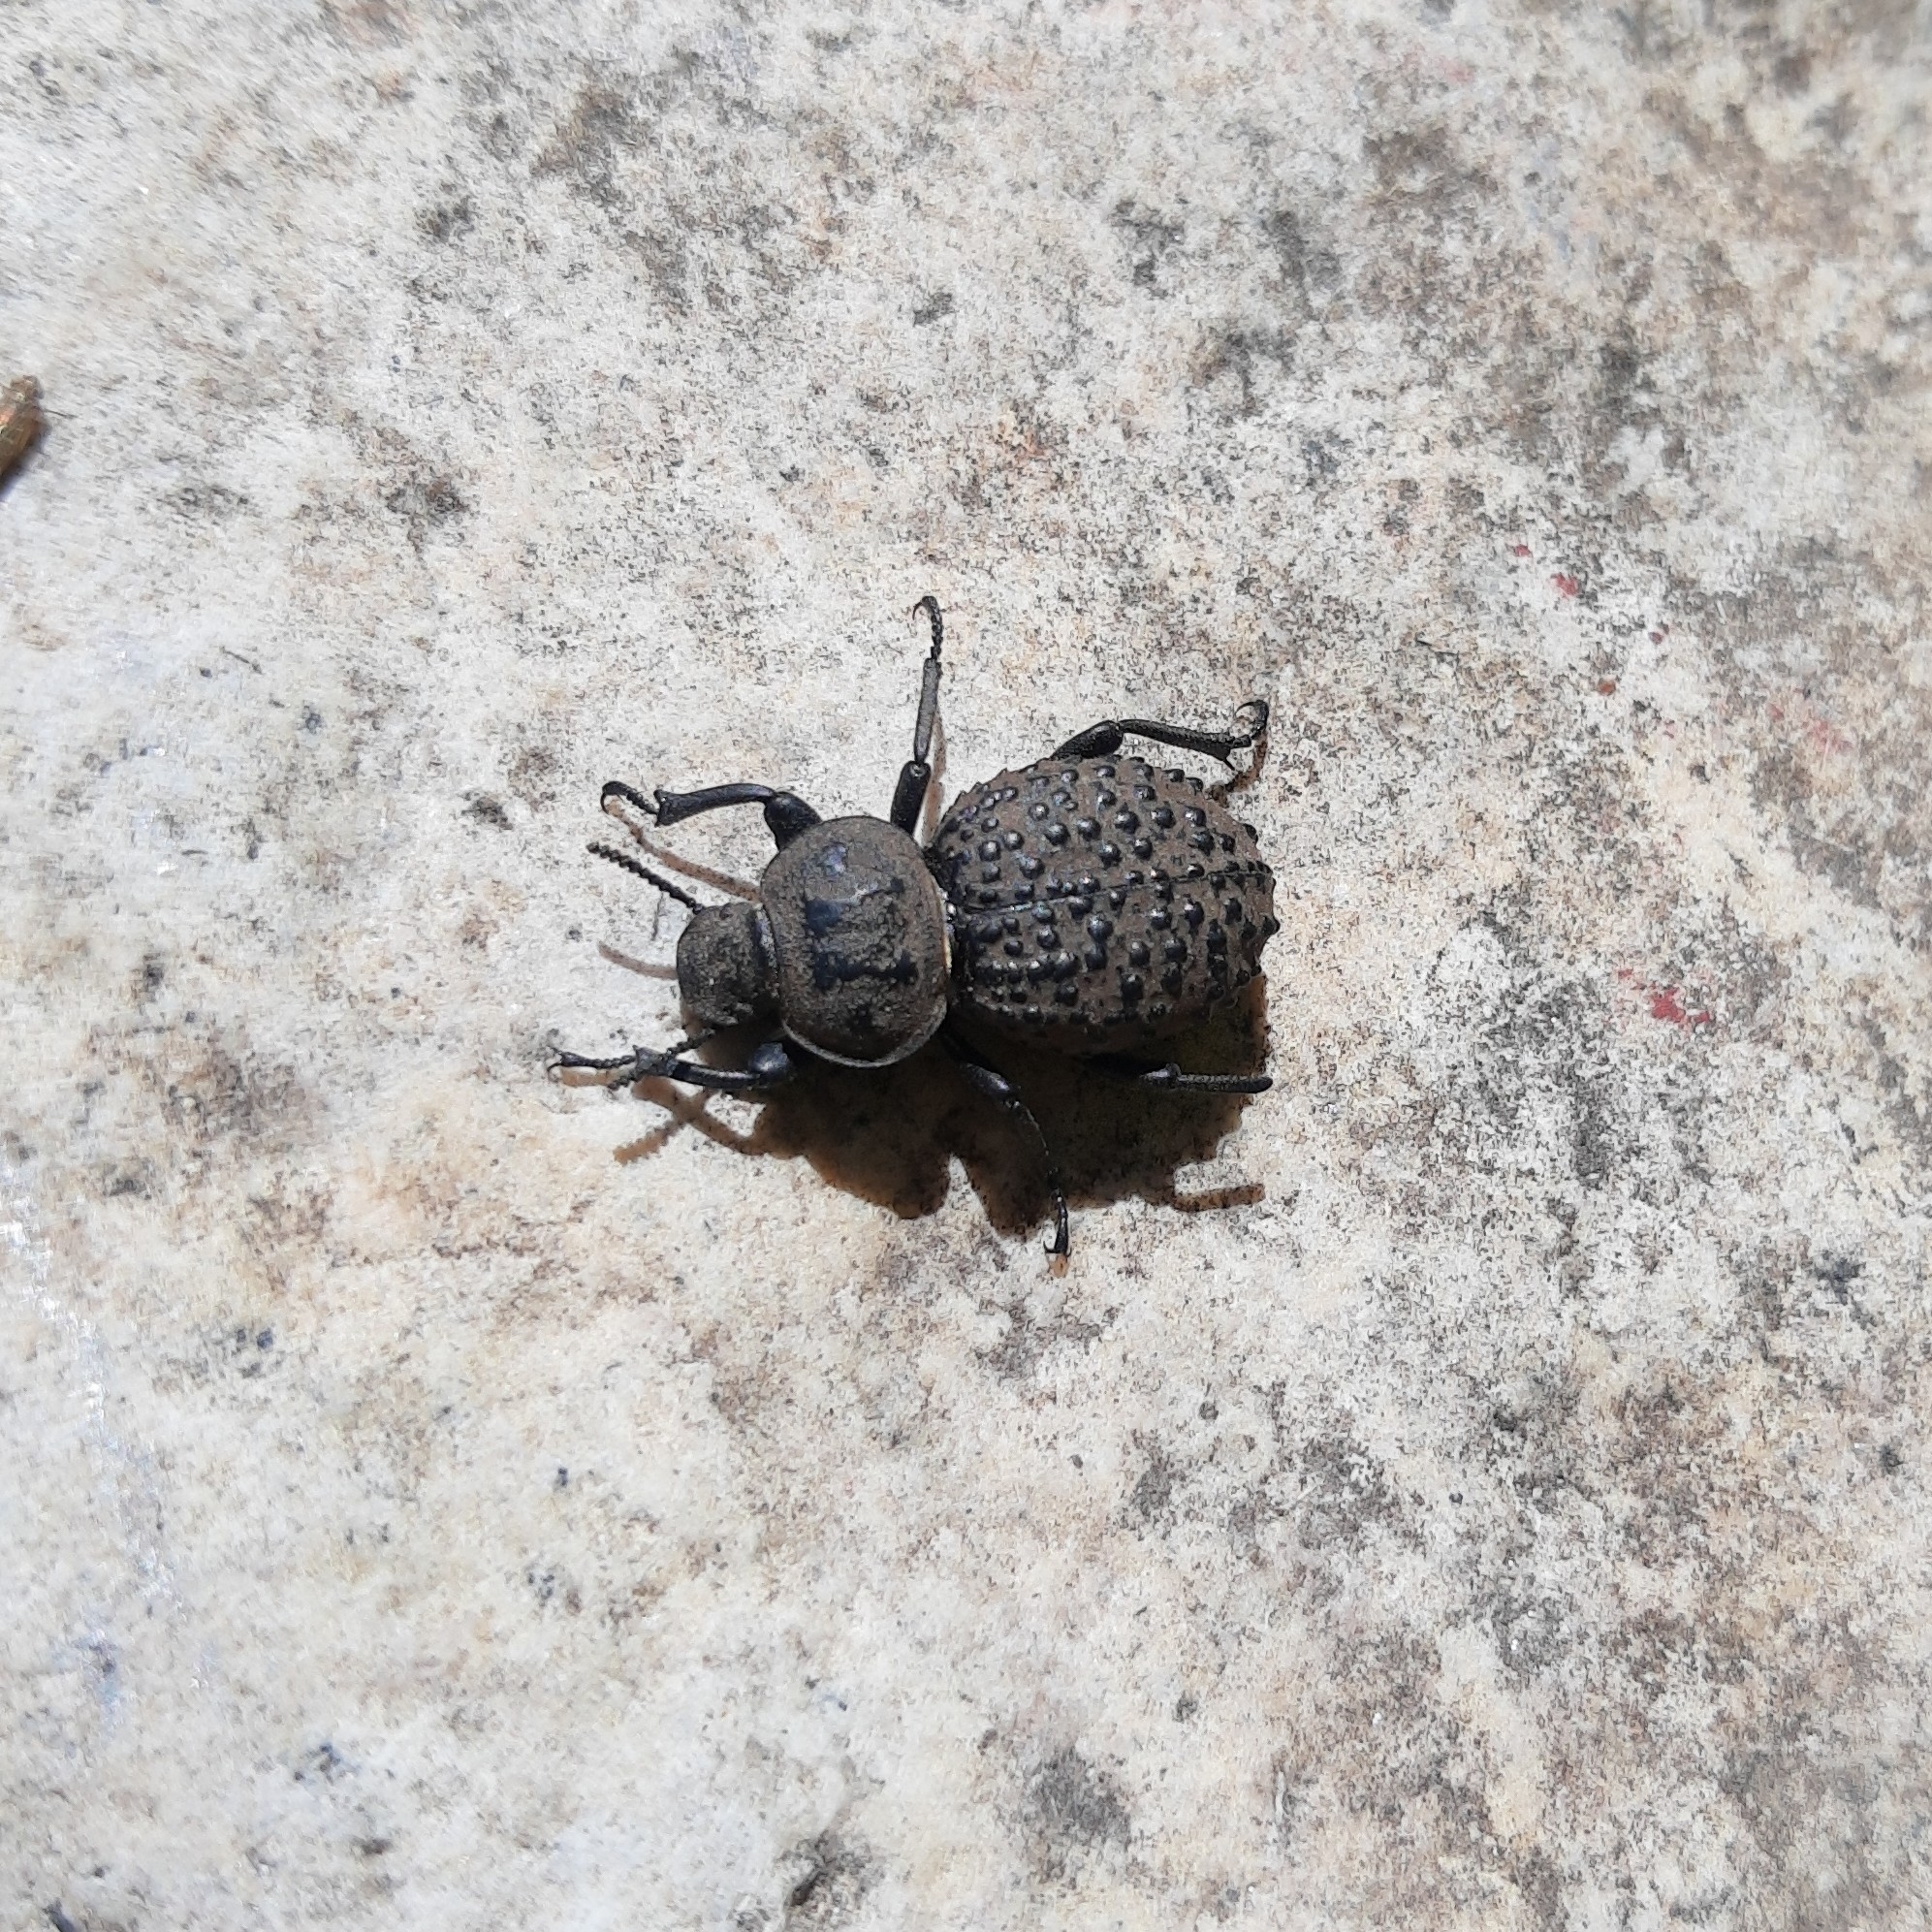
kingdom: Animalia
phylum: Arthropoda
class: Insecta
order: Coleoptera
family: Tenebrionidae
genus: Scotobius
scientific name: Scotobius pilularius
